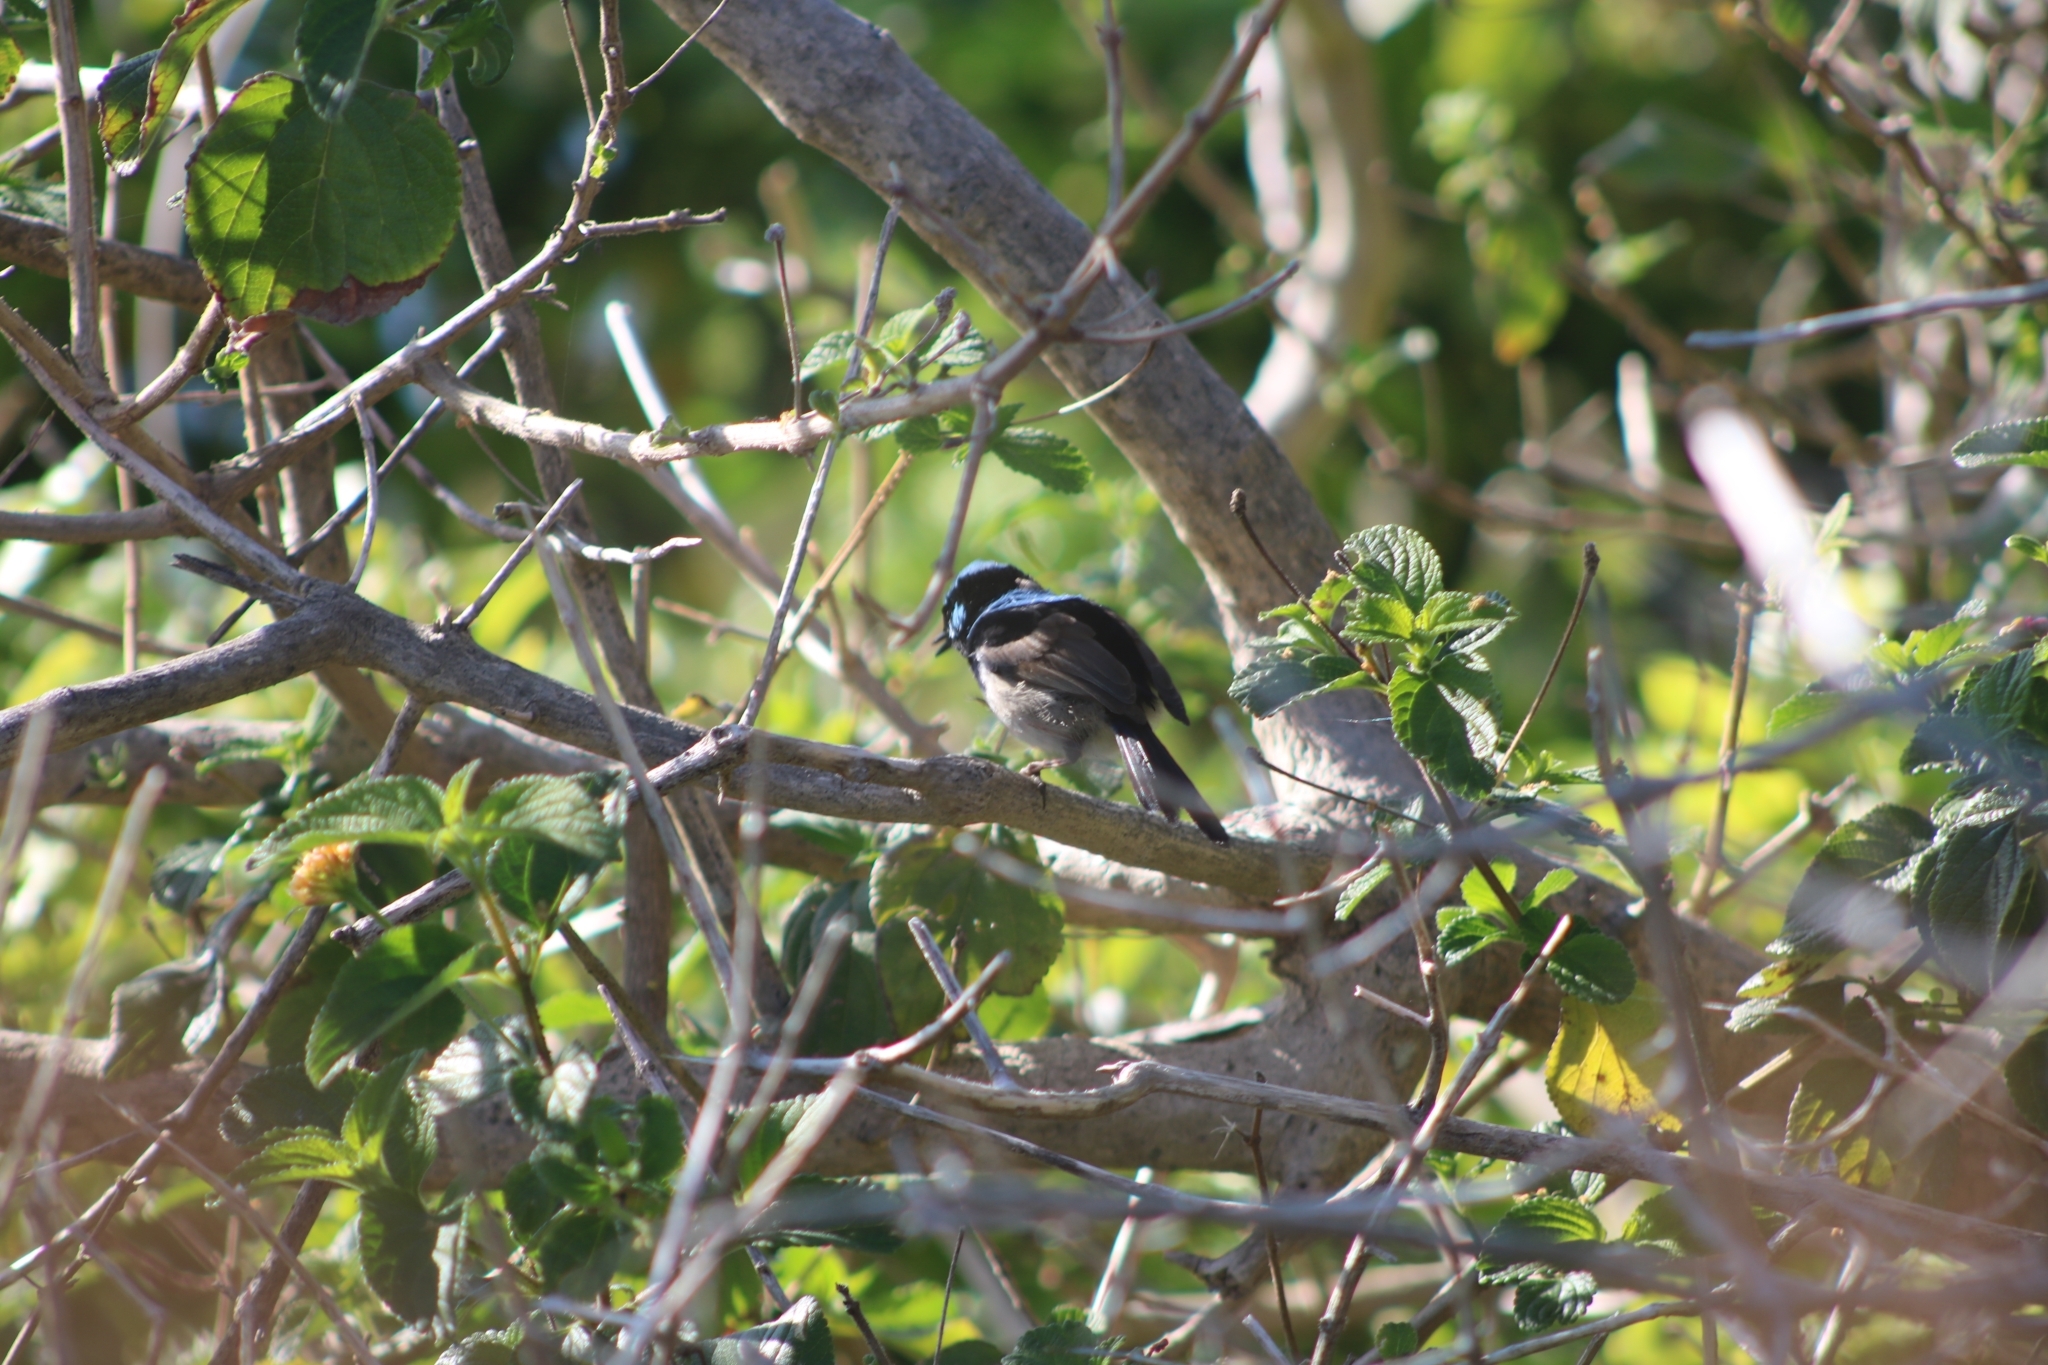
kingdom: Animalia
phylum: Chordata
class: Aves
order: Passeriformes
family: Maluridae
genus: Malurus
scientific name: Malurus cyaneus
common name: Superb fairywren
